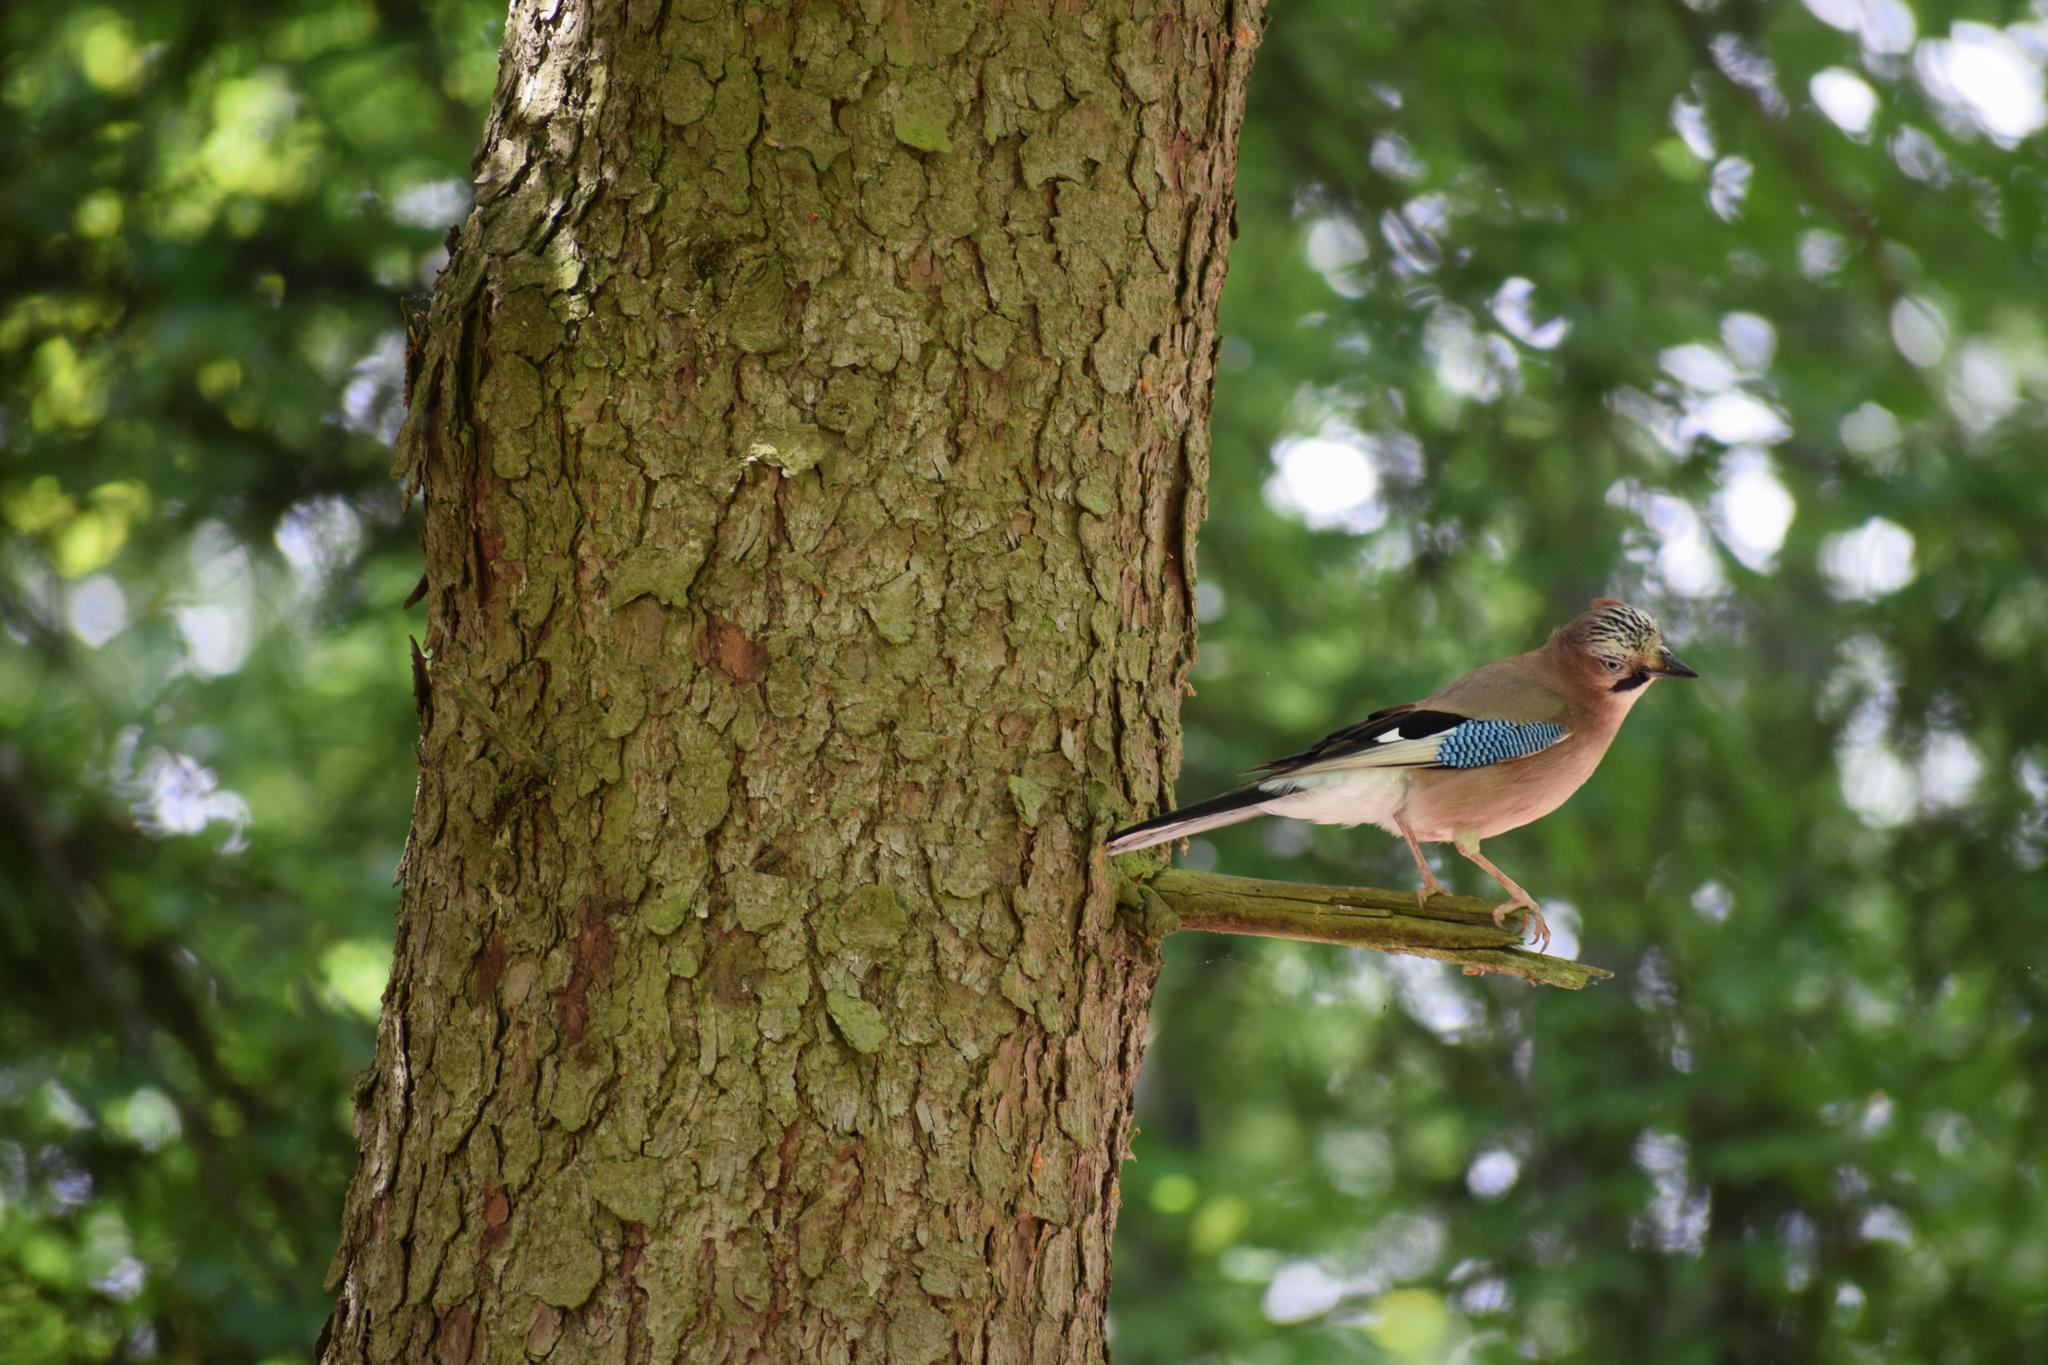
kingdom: Animalia
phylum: Chordata
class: Aves
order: Passeriformes
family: Corvidae
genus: Garrulus
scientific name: Garrulus glandarius
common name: Eurasian jay
